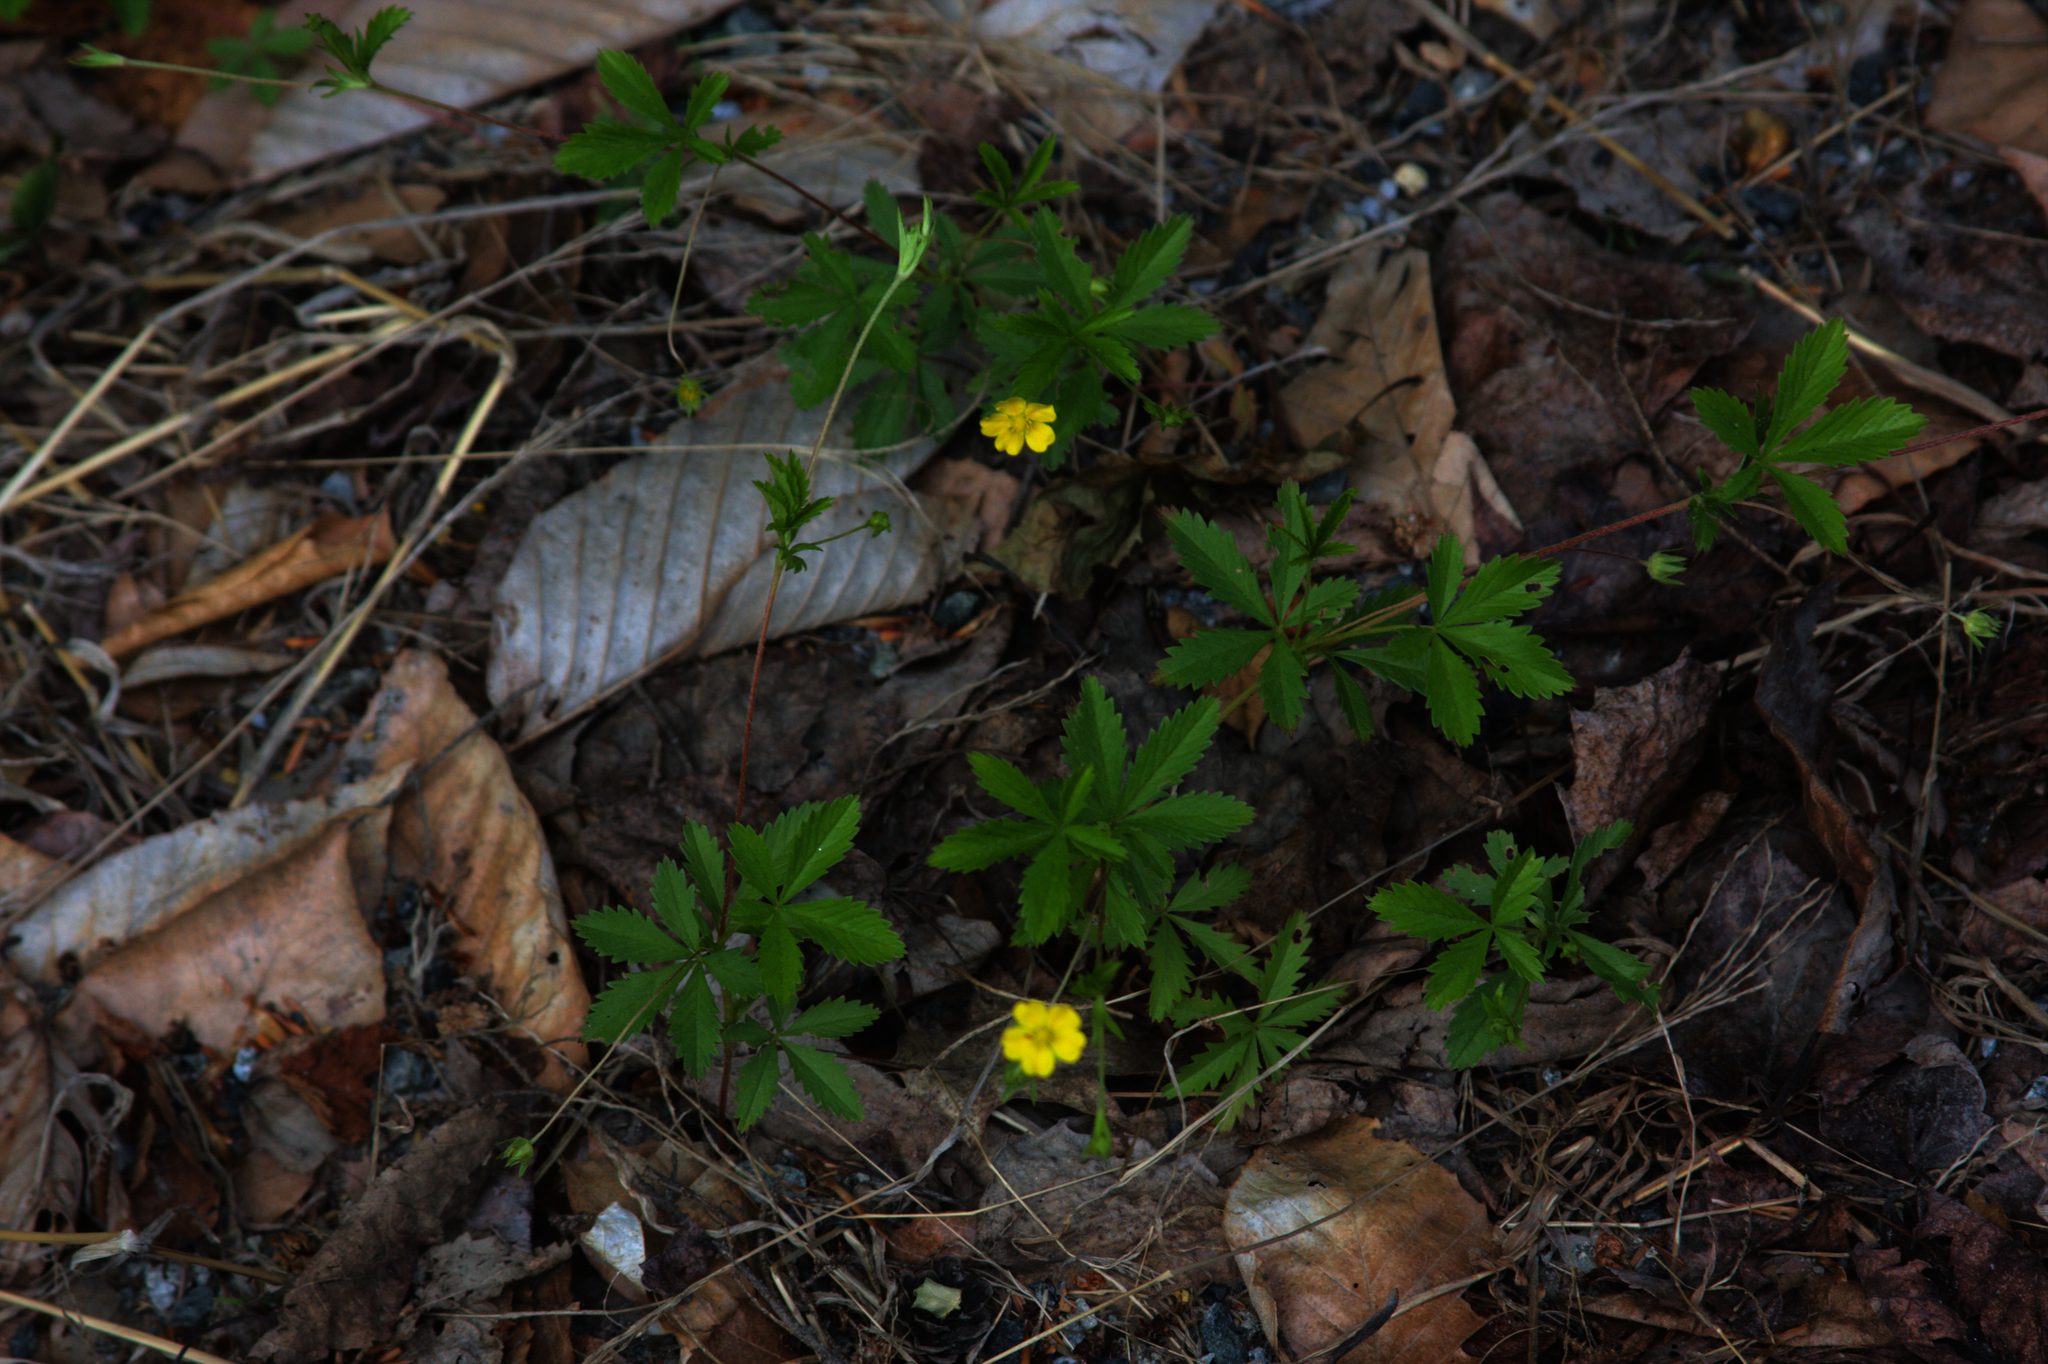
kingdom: Plantae
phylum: Tracheophyta
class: Magnoliopsida
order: Rosales
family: Rosaceae
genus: Potentilla
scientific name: Potentilla simplex
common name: Old field cinquefoil
